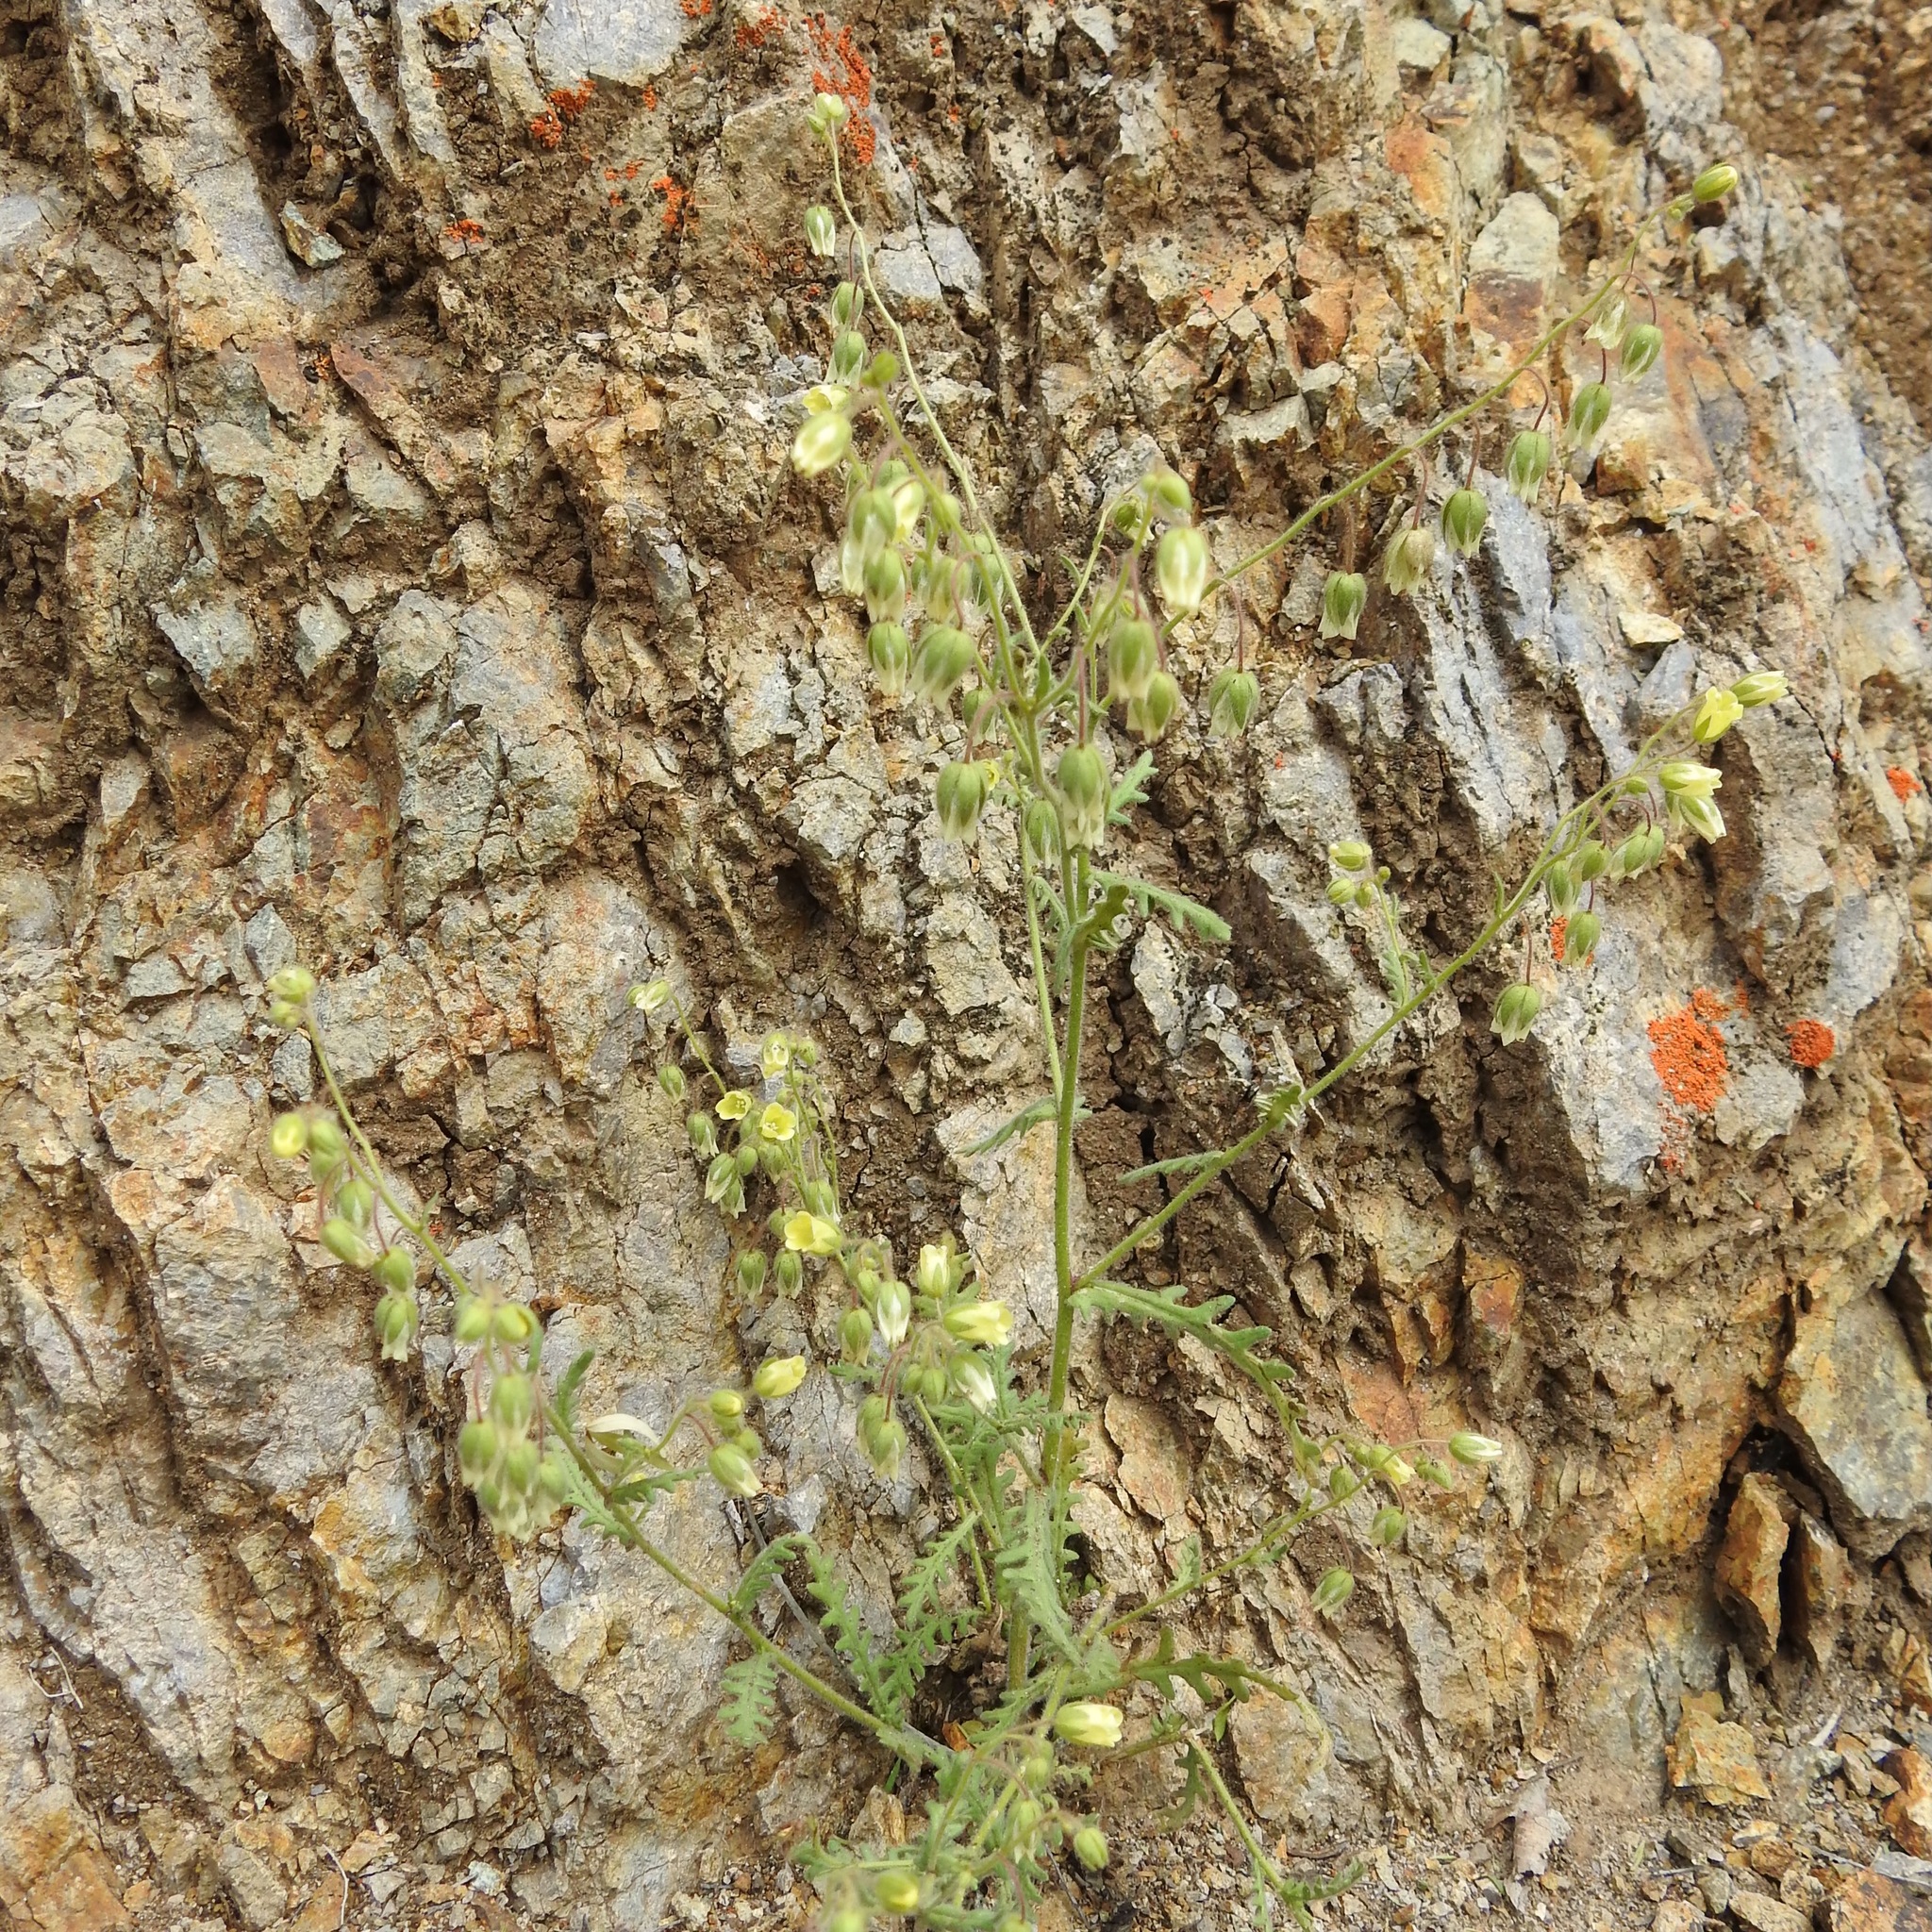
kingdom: Plantae
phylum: Tracheophyta
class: Magnoliopsida
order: Boraginales
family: Hydrophyllaceae
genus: Emmenanthe
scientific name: Emmenanthe penduliflora
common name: Whispering-bells
